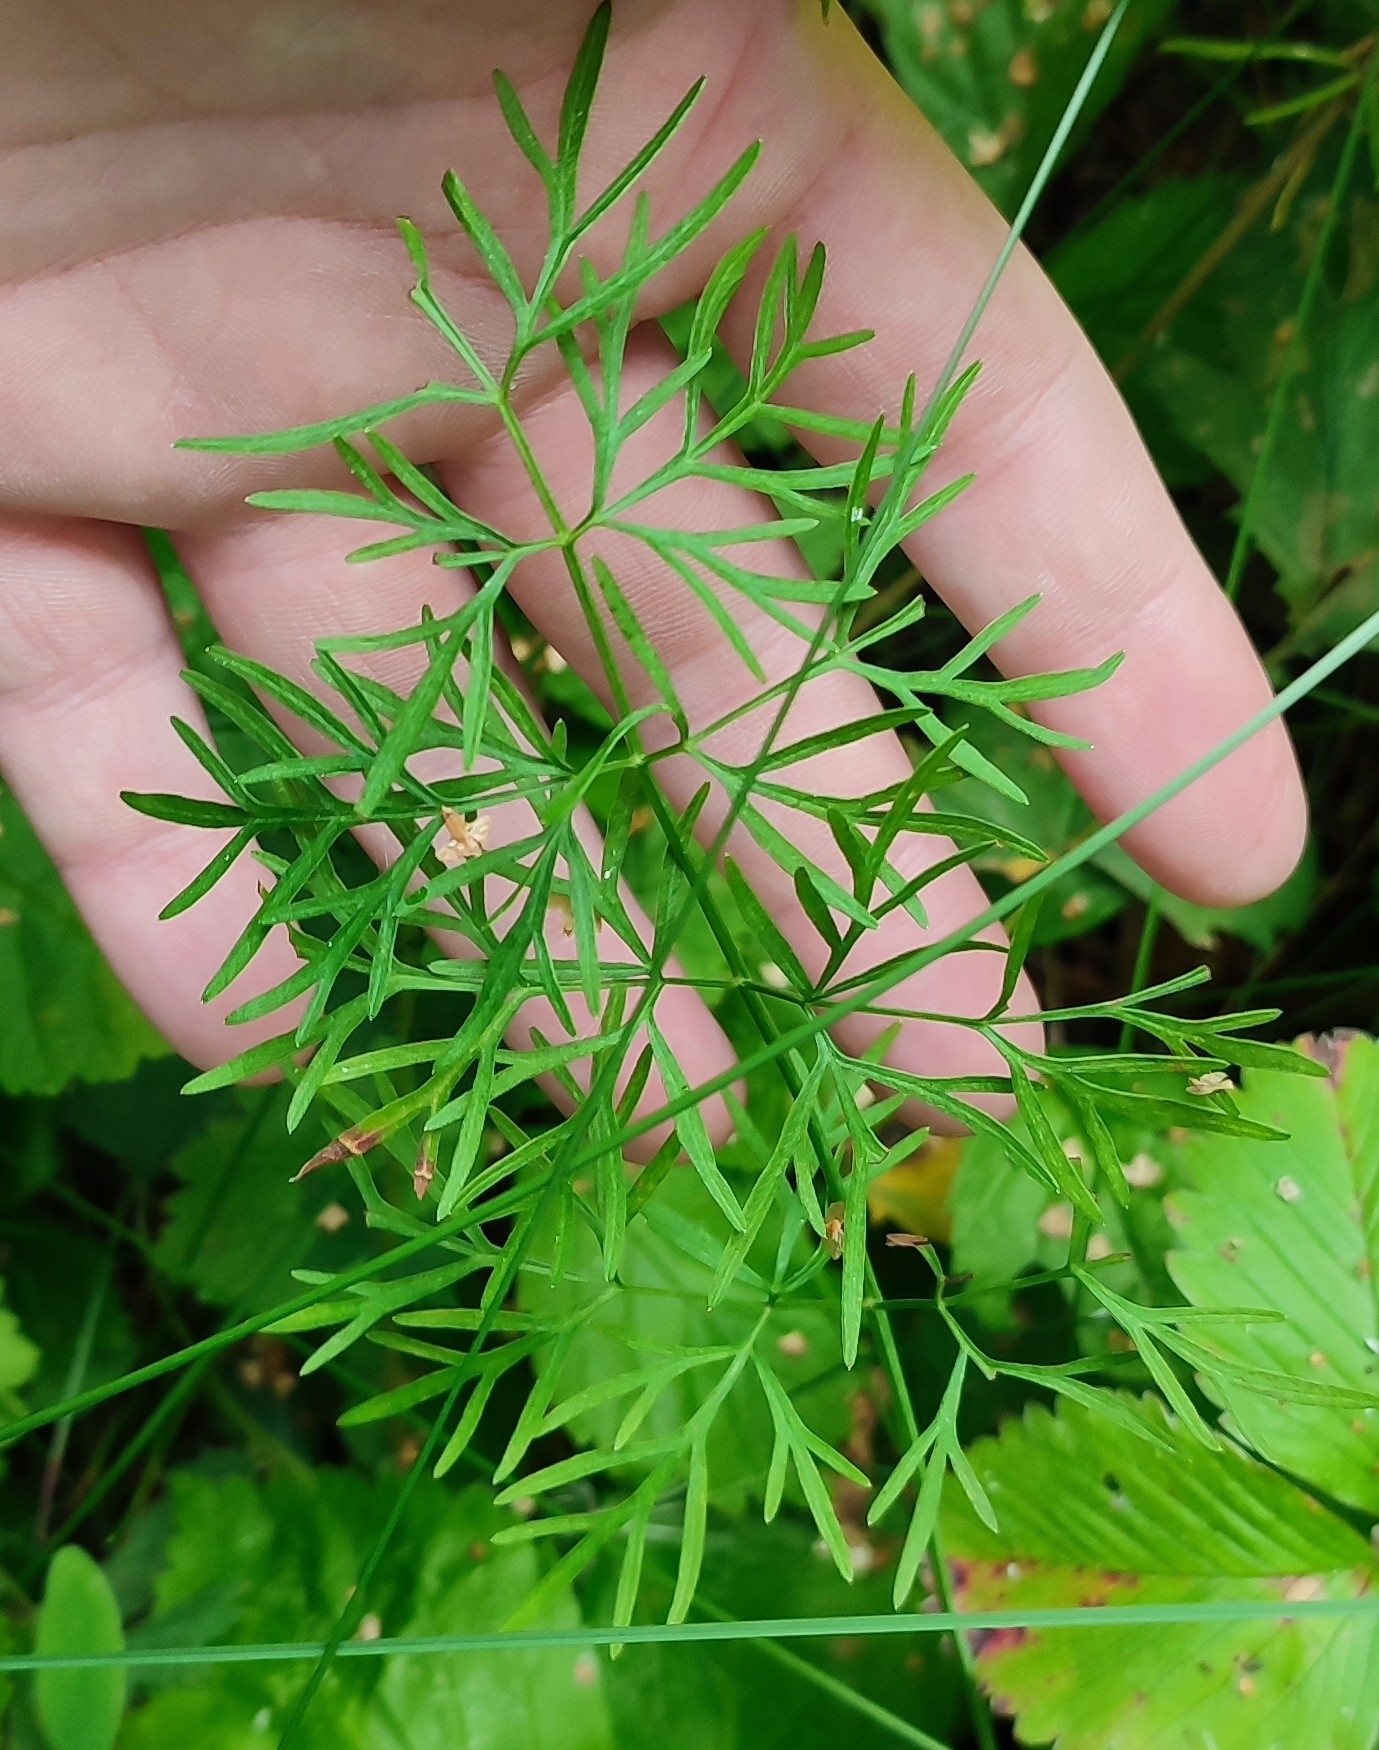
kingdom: Plantae
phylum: Tracheophyta
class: Magnoliopsida
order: Apiales
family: Apiaceae
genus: Kadenia
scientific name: Kadenia dubia
